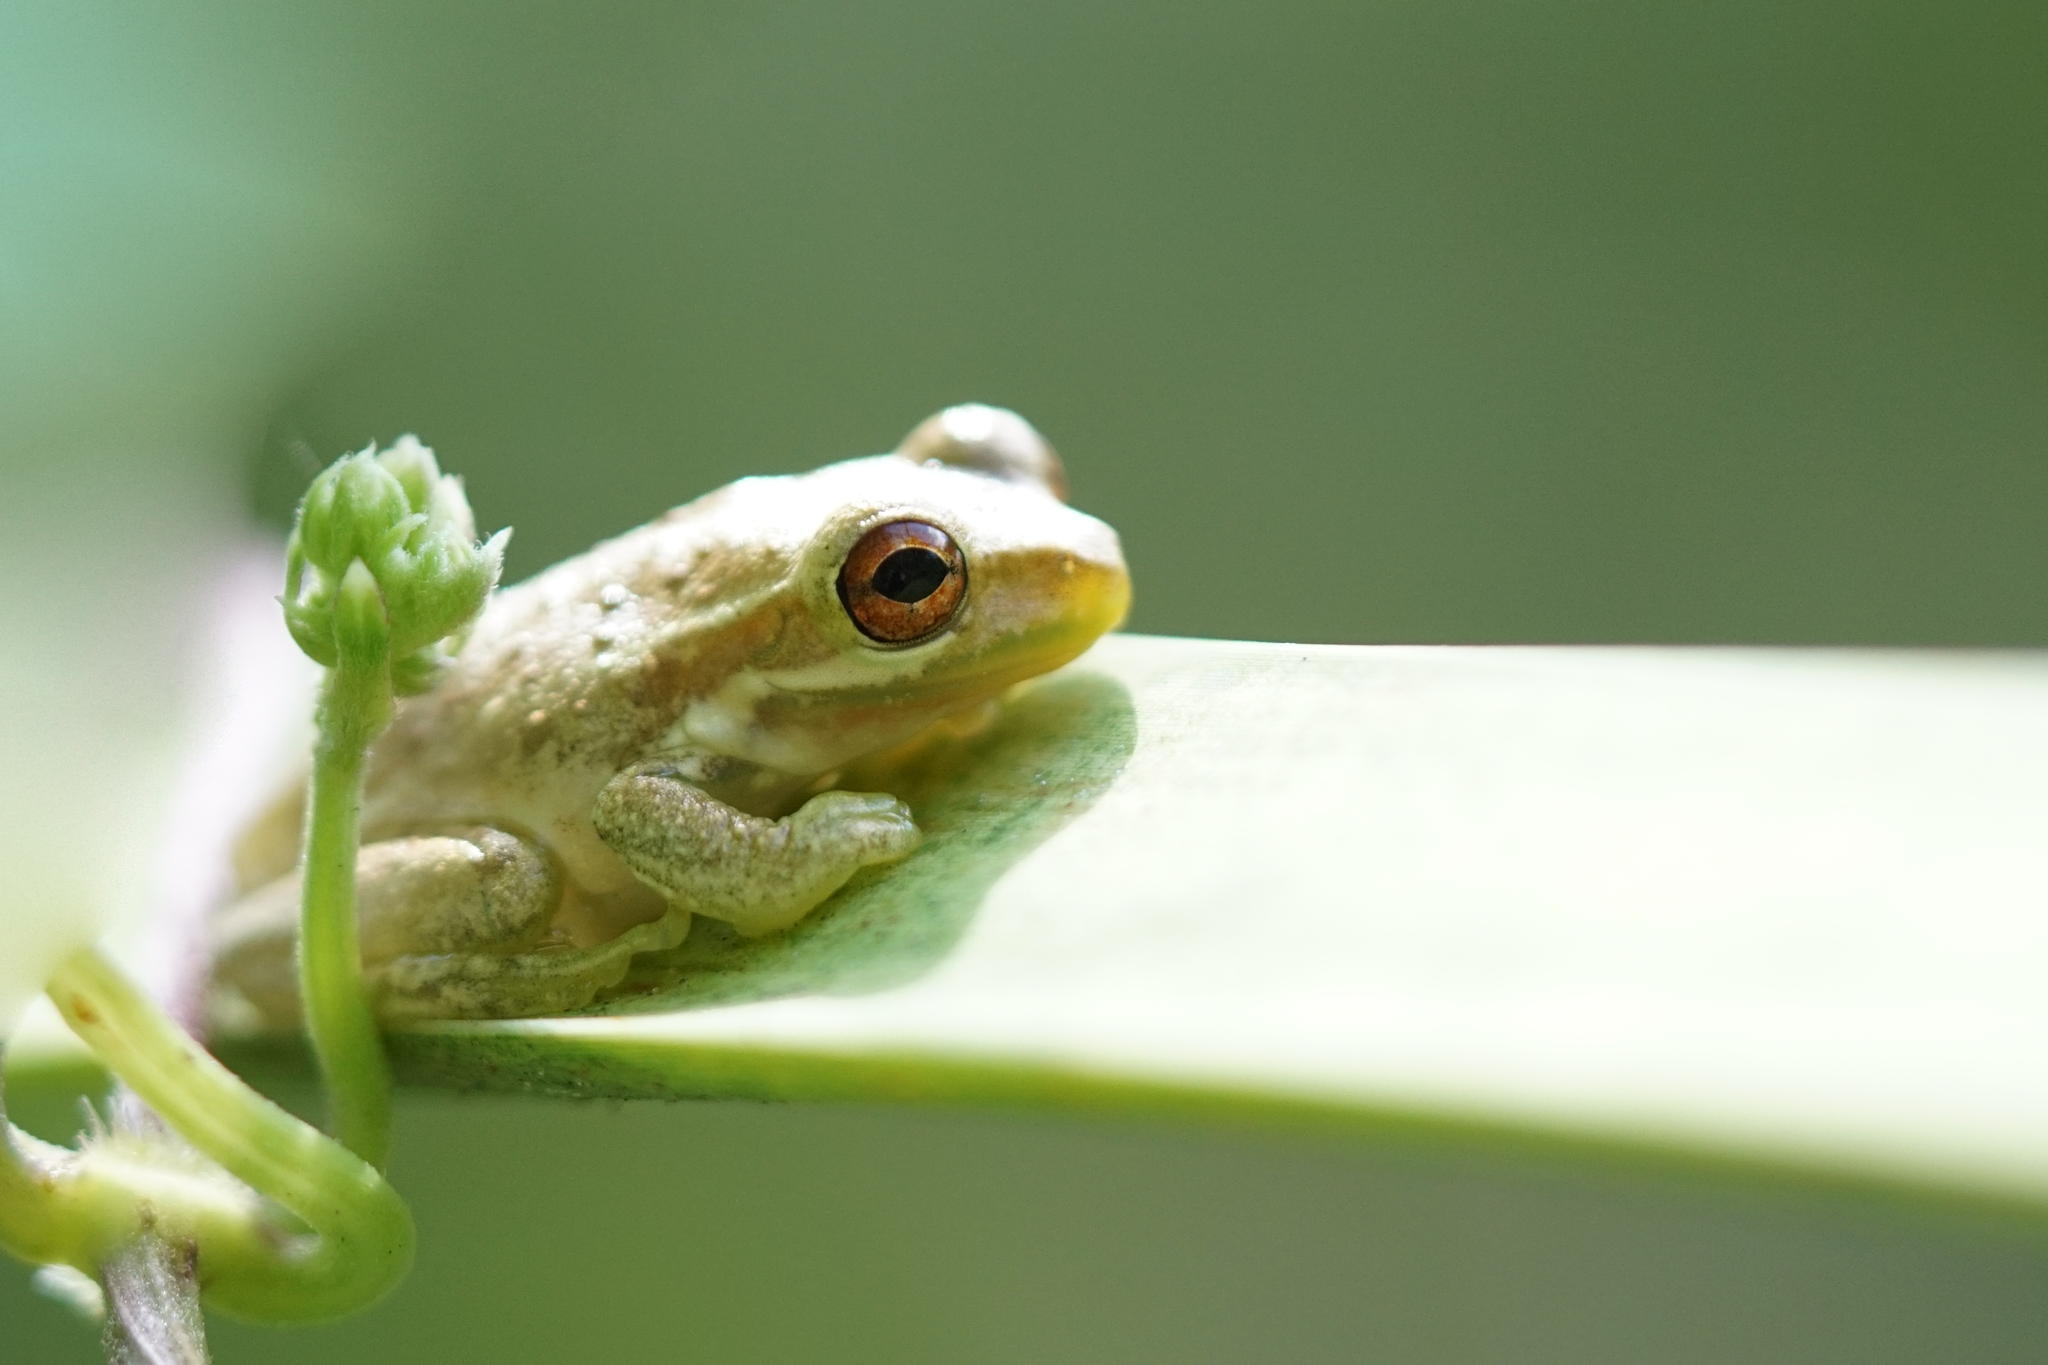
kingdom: Animalia
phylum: Chordata
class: Amphibia
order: Anura
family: Hylidae
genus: Osteopilus
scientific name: Osteopilus septentrionalis
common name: Cuban treefrog
